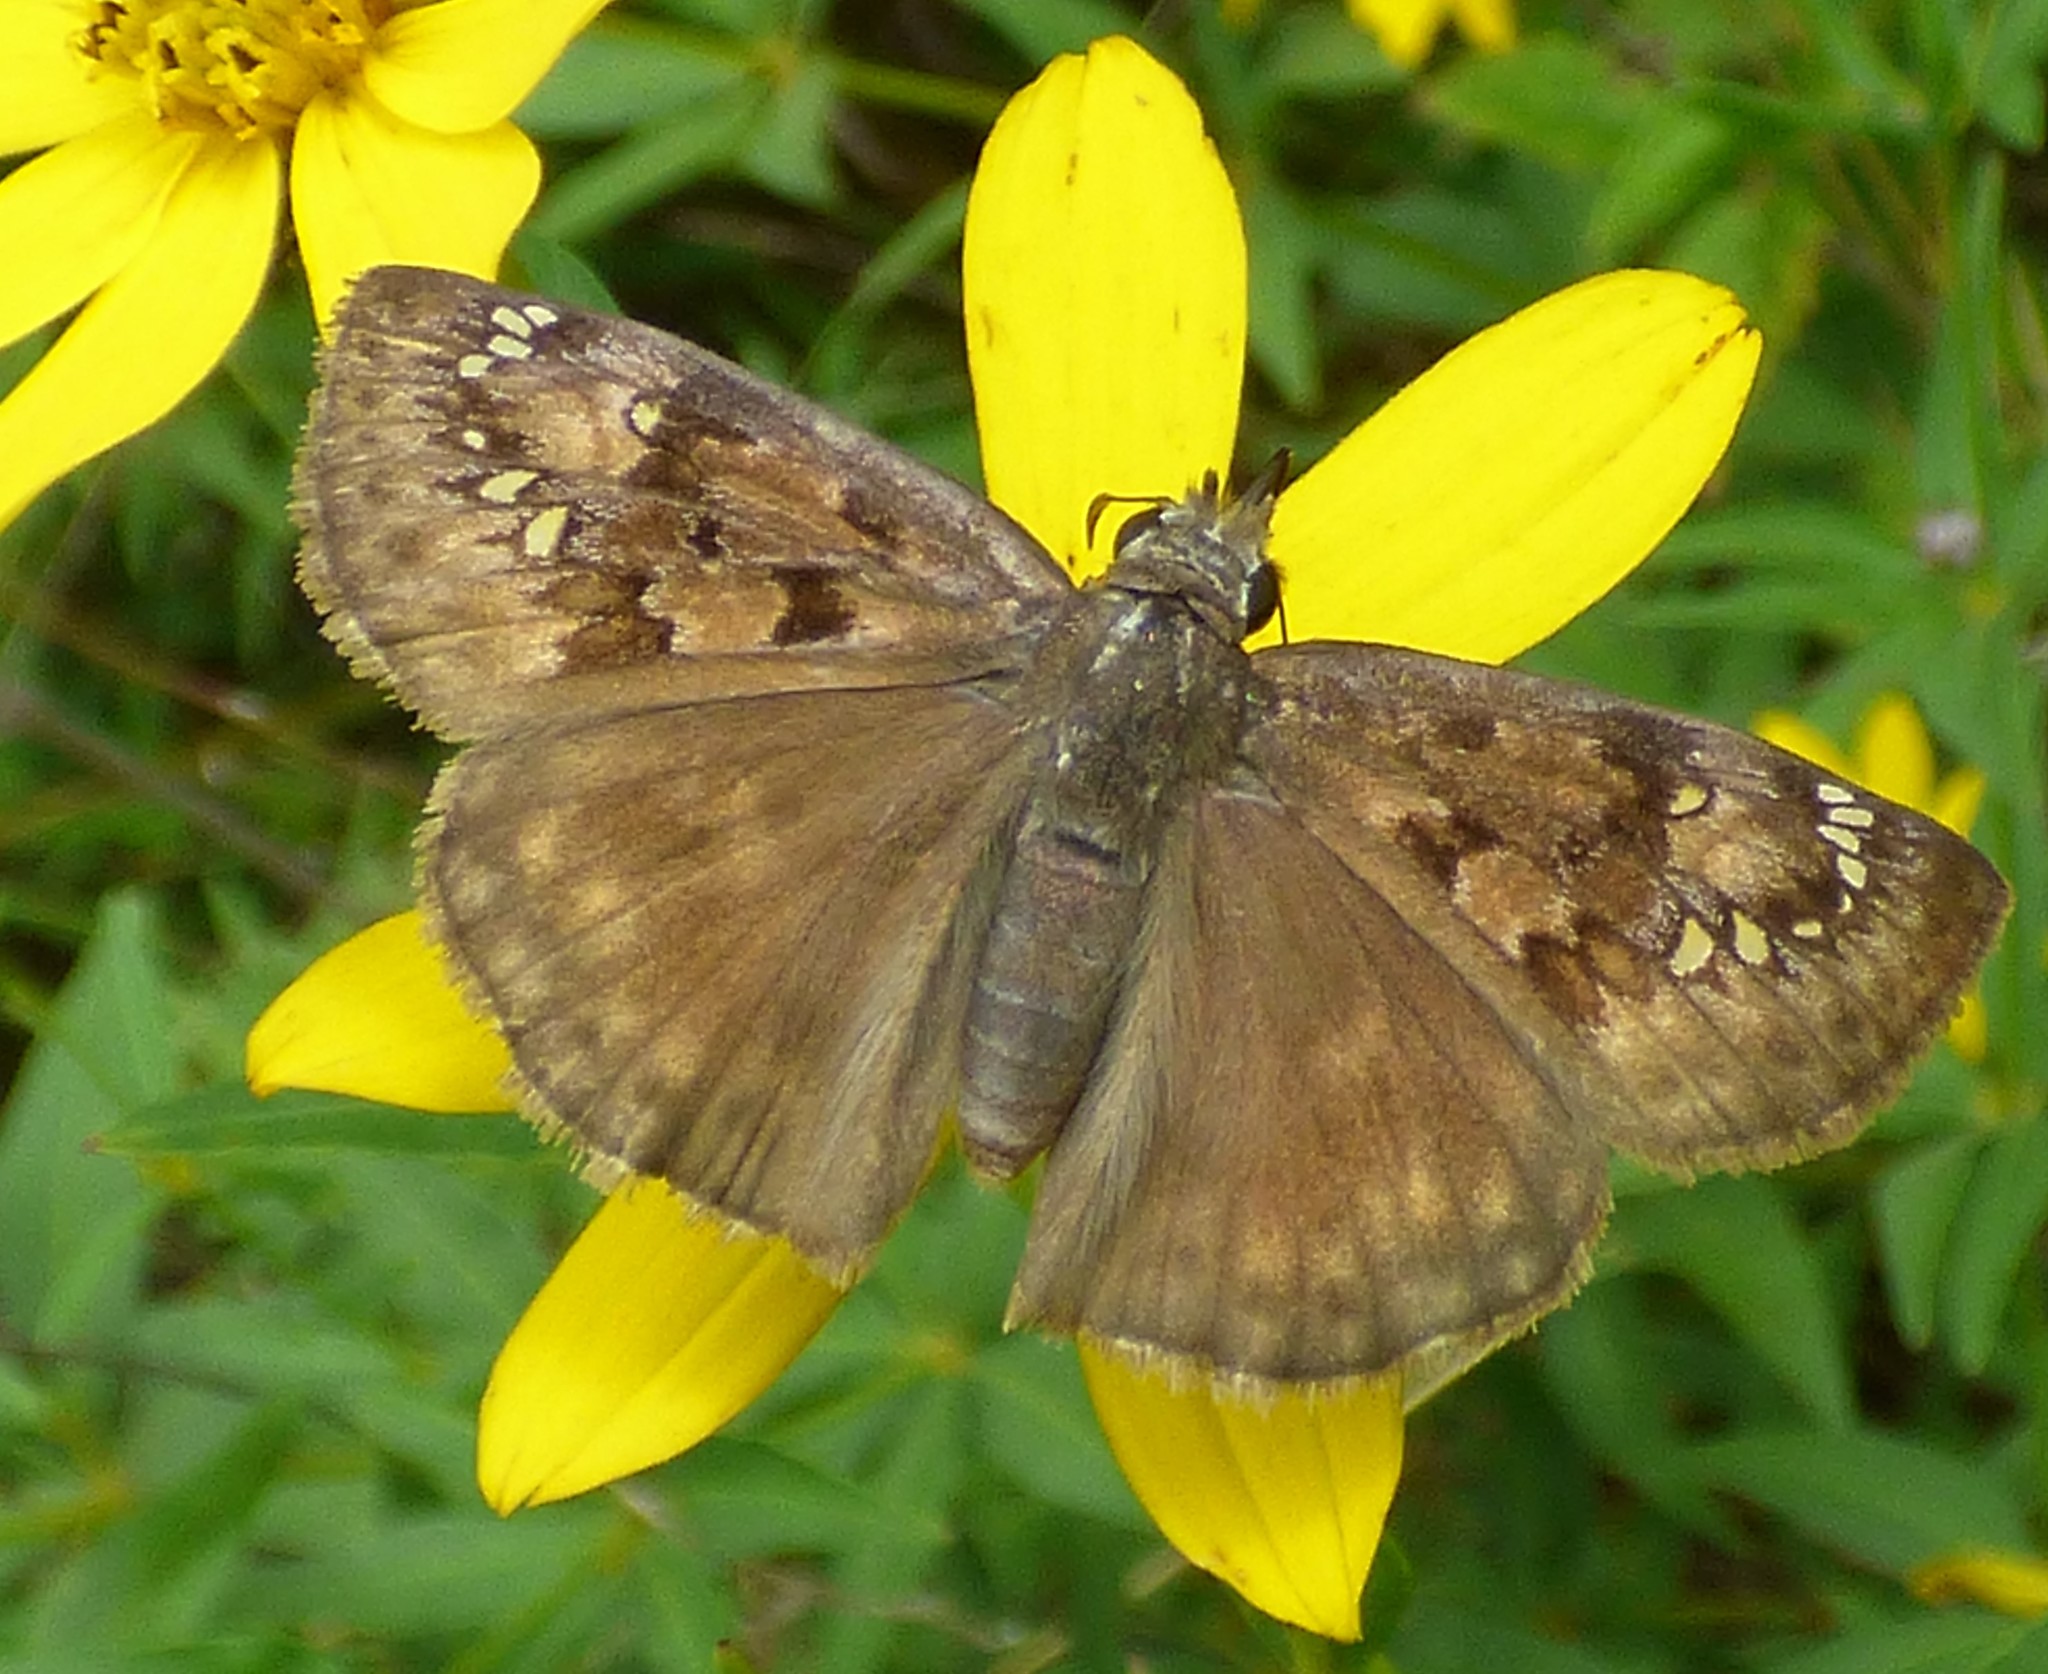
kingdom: Animalia
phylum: Arthropoda
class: Insecta
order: Lepidoptera
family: Hesperiidae
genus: Erynnis
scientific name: Erynnis horatius
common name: Horace's duskywing
